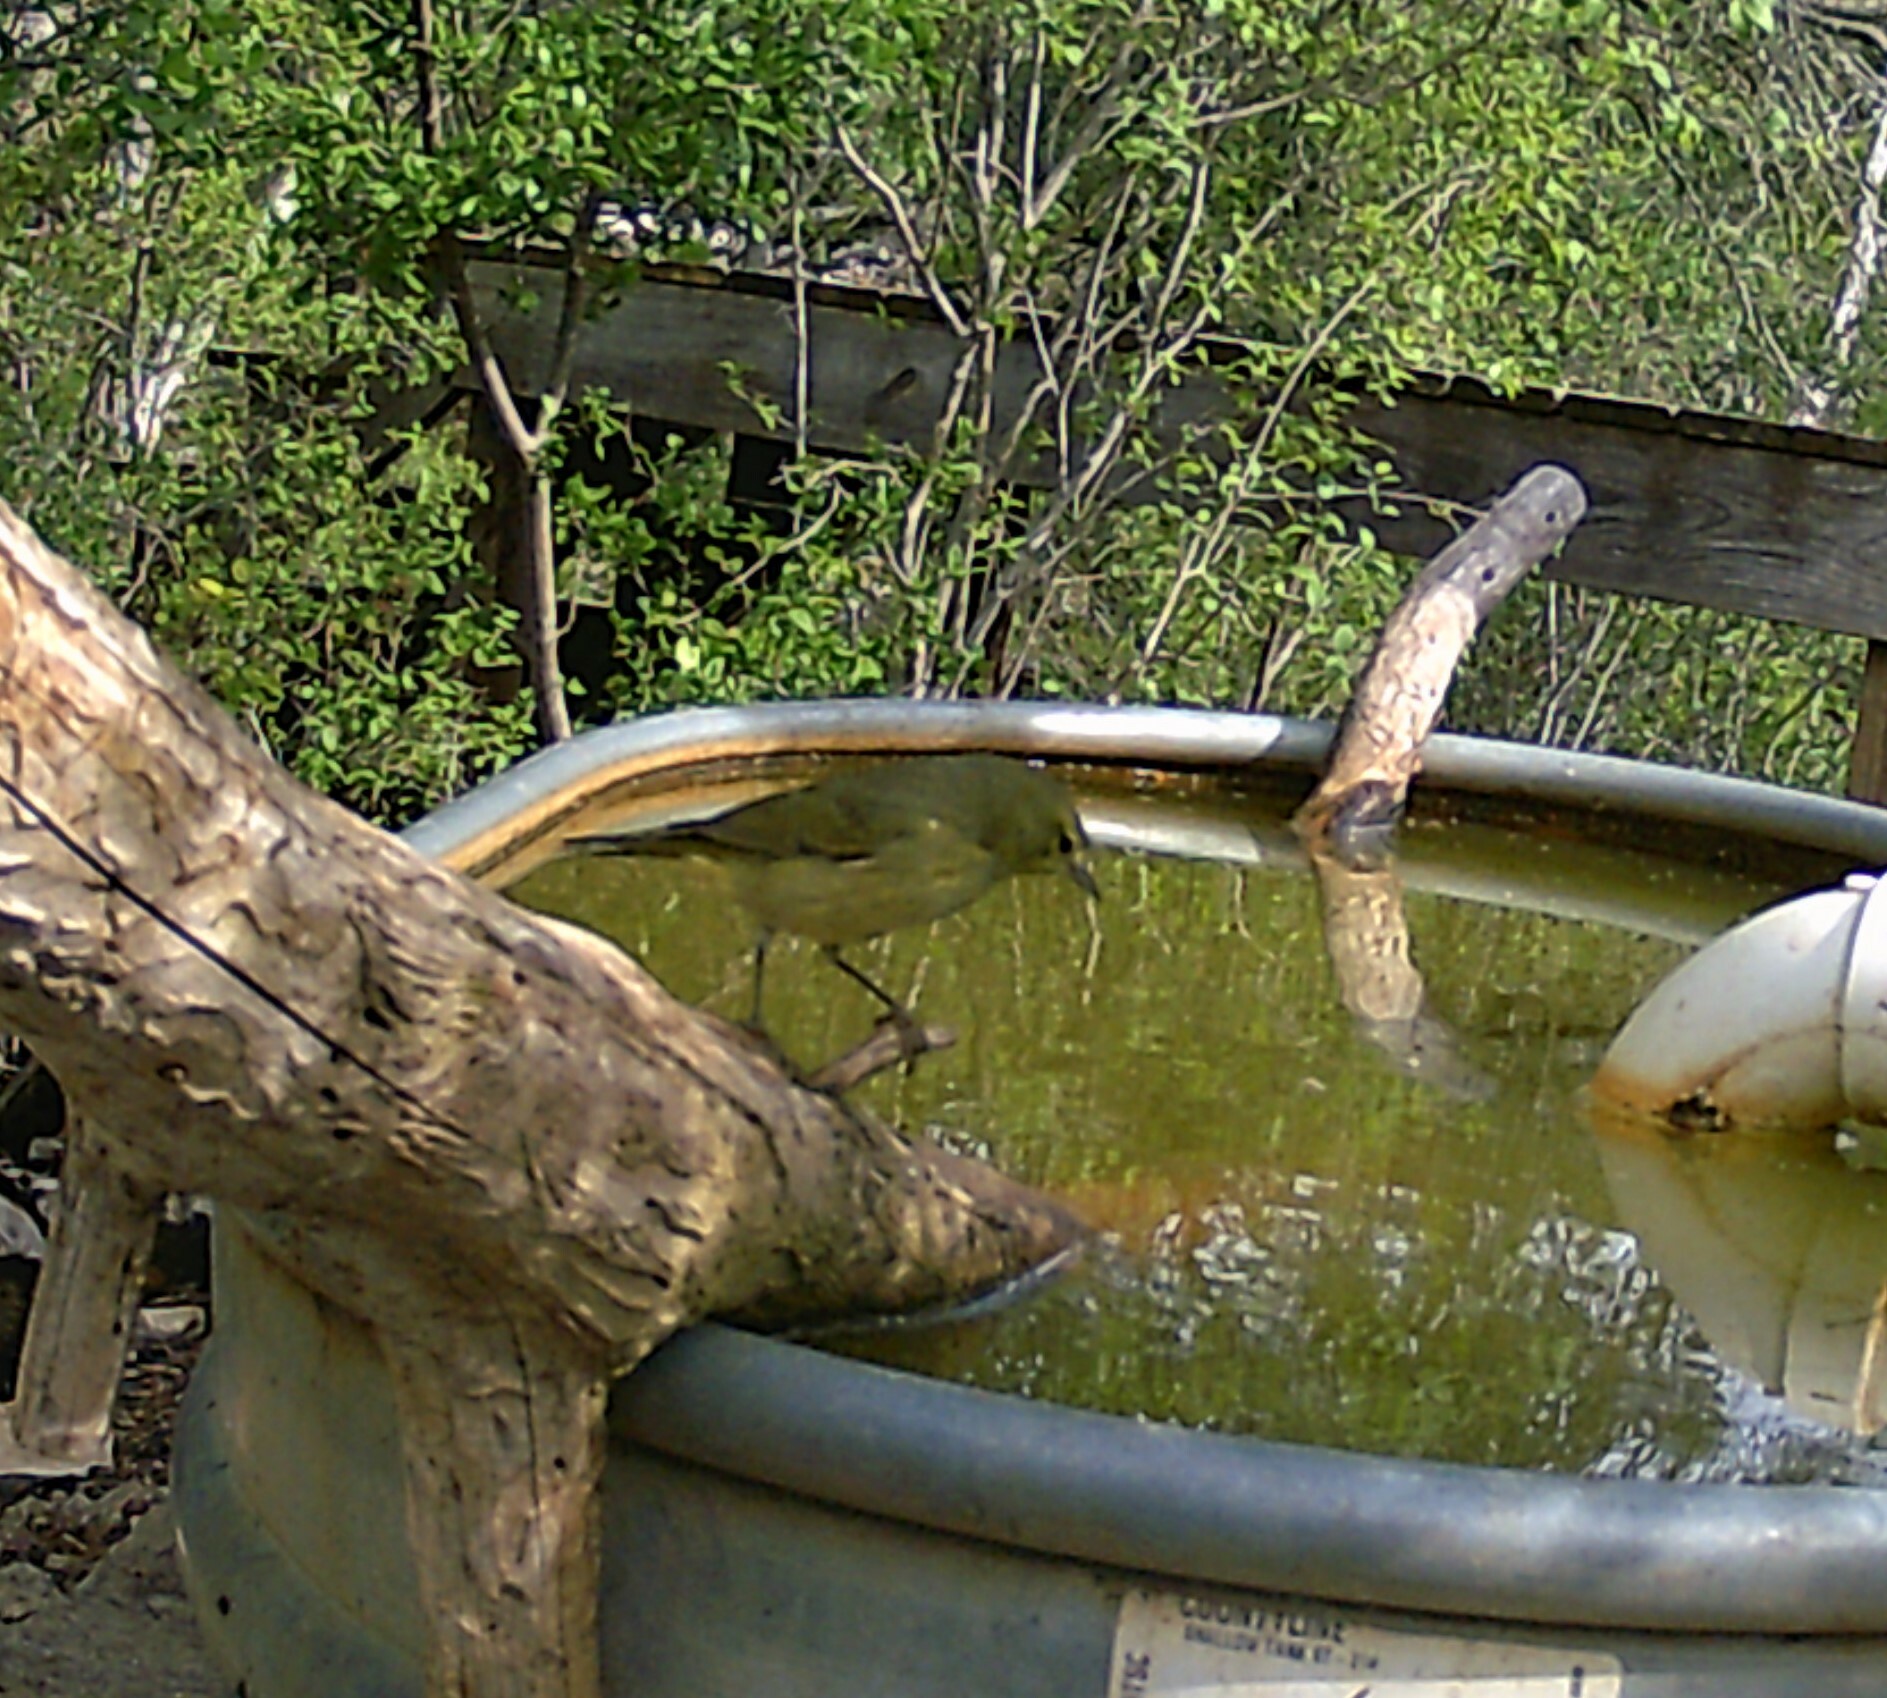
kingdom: Animalia
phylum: Chordata
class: Aves
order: Passeriformes
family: Parulidae
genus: Leiothlypis
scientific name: Leiothlypis celata
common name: Orange-crowned warbler
